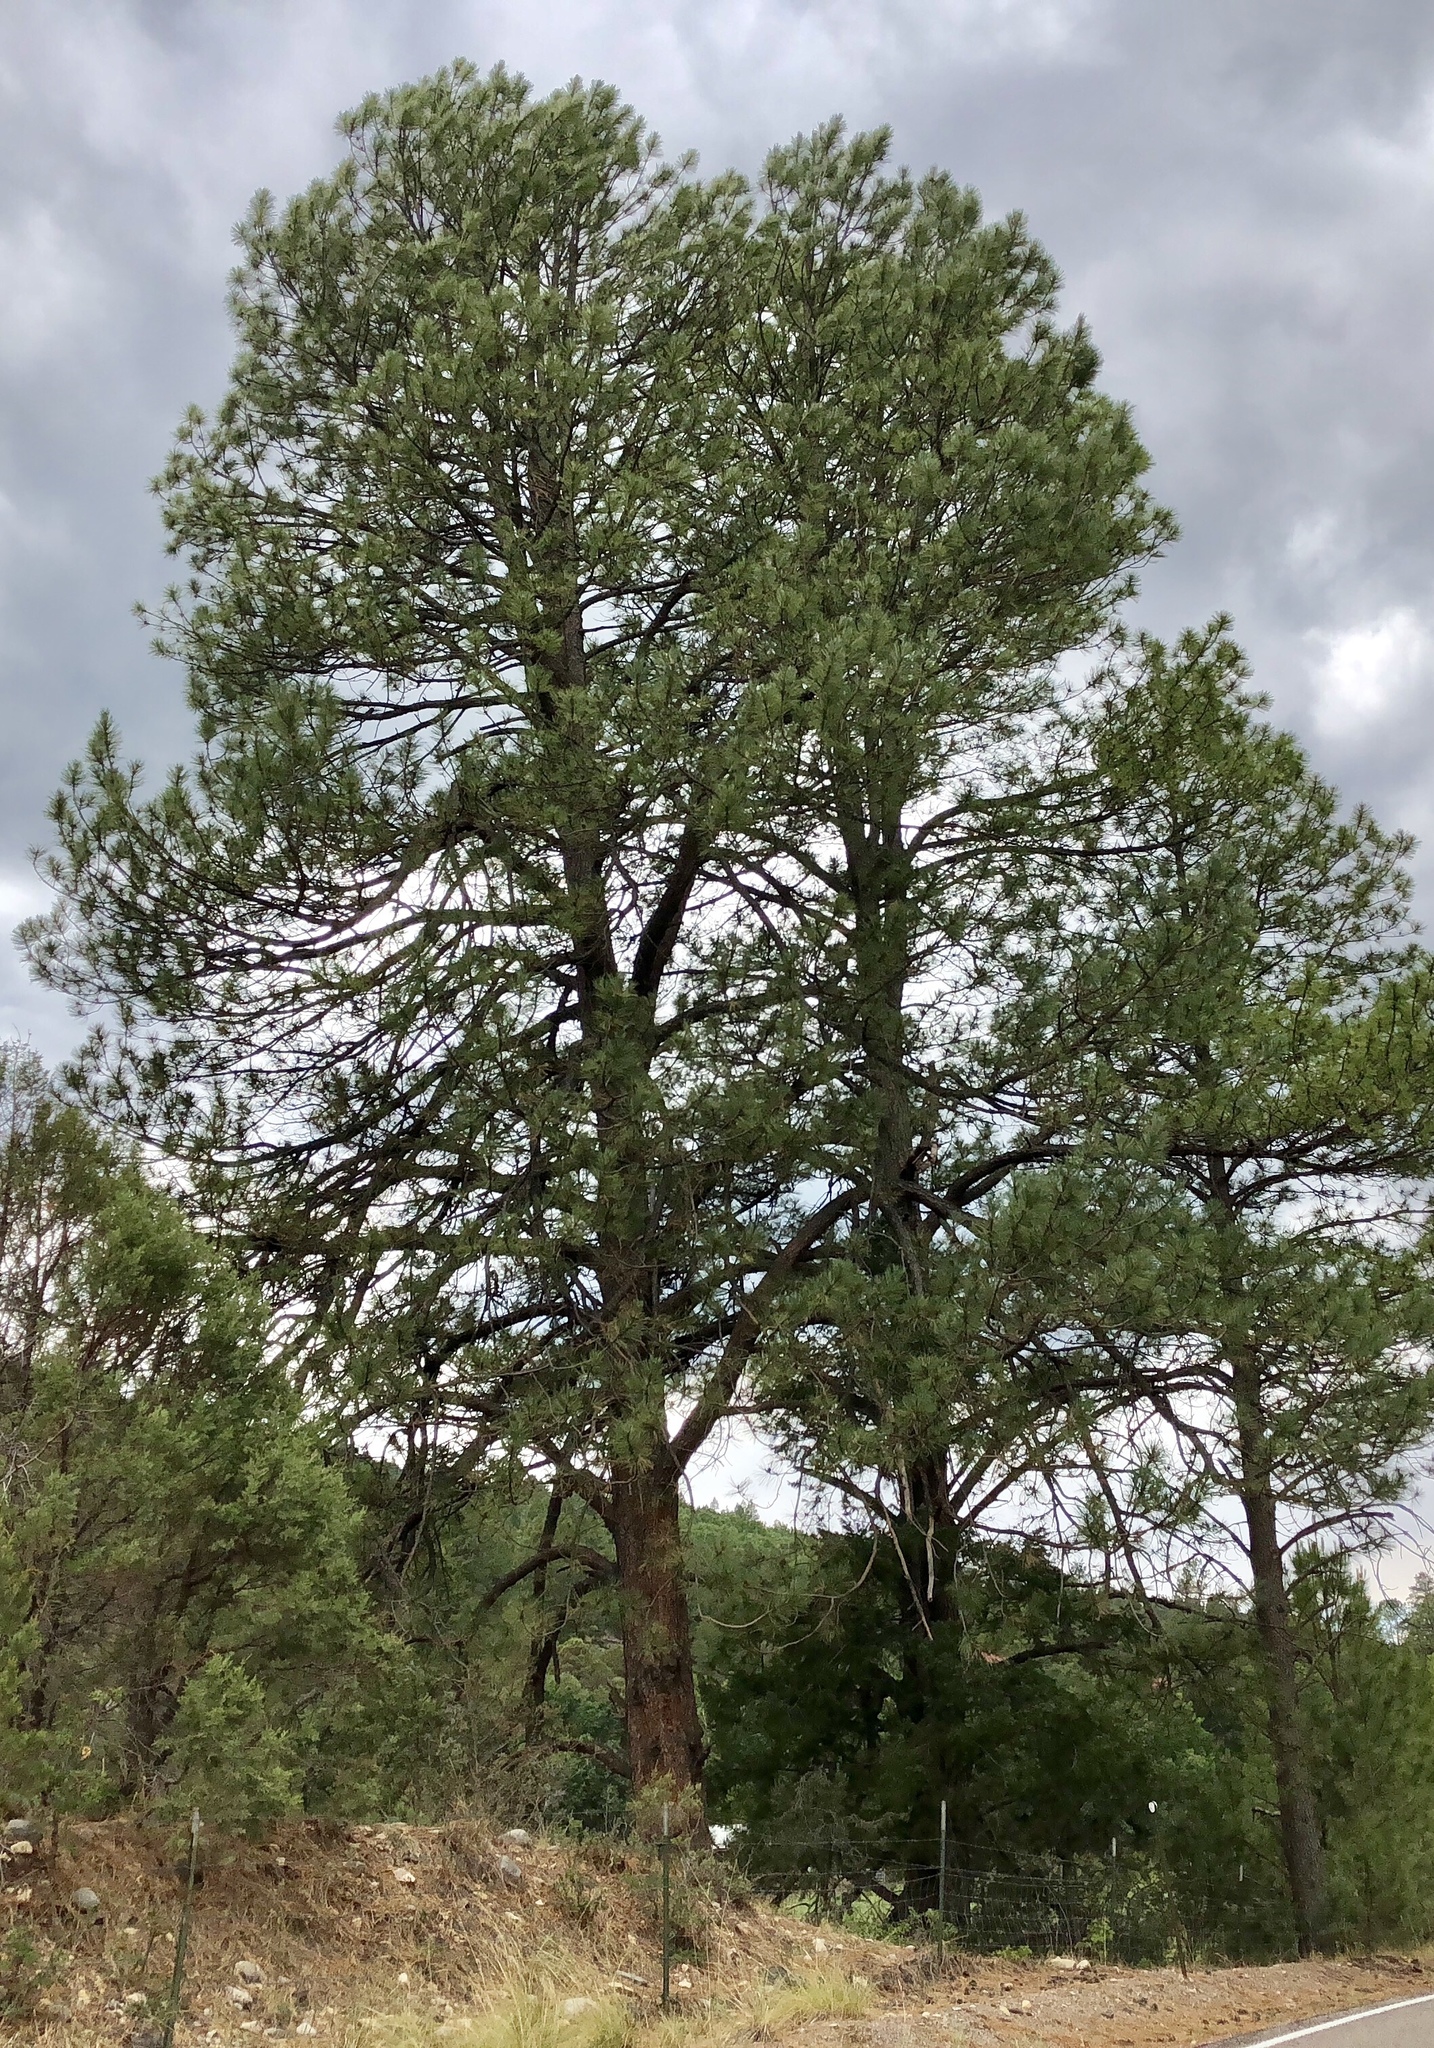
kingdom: Plantae
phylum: Tracheophyta
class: Pinopsida
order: Pinales
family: Pinaceae
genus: Pinus
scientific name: Pinus ponderosa
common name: Western yellow-pine
